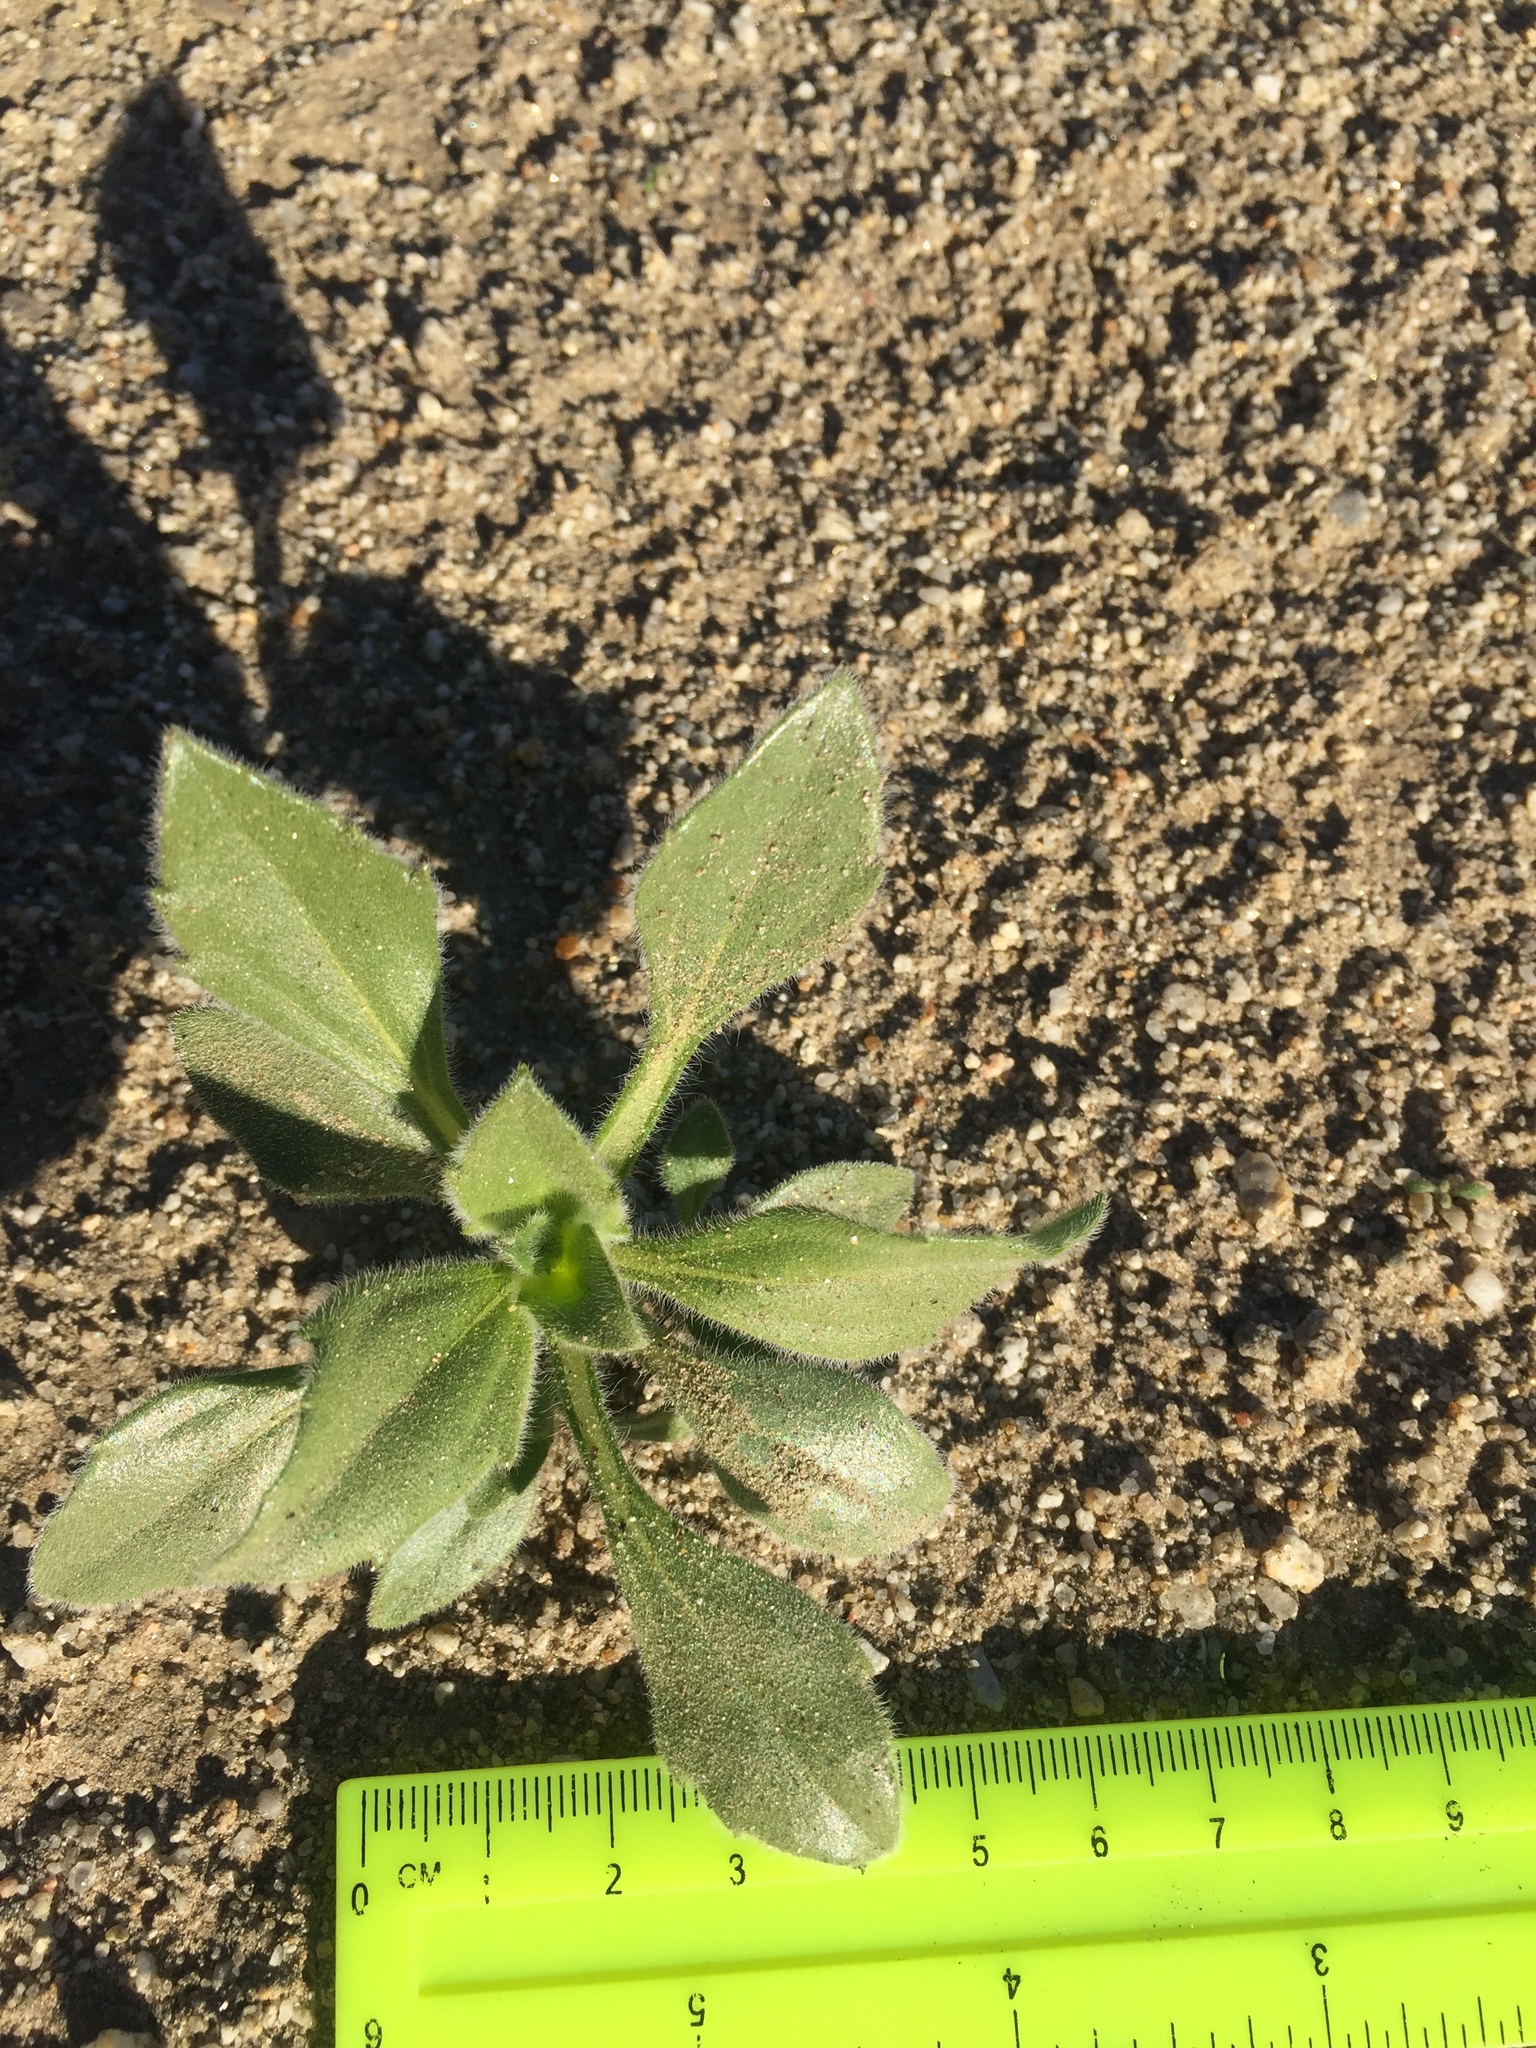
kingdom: Plantae
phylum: Tracheophyta
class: Magnoliopsida
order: Asterales
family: Asteraceae
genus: Geraea
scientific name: Geraea canescens
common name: Desert-gold
